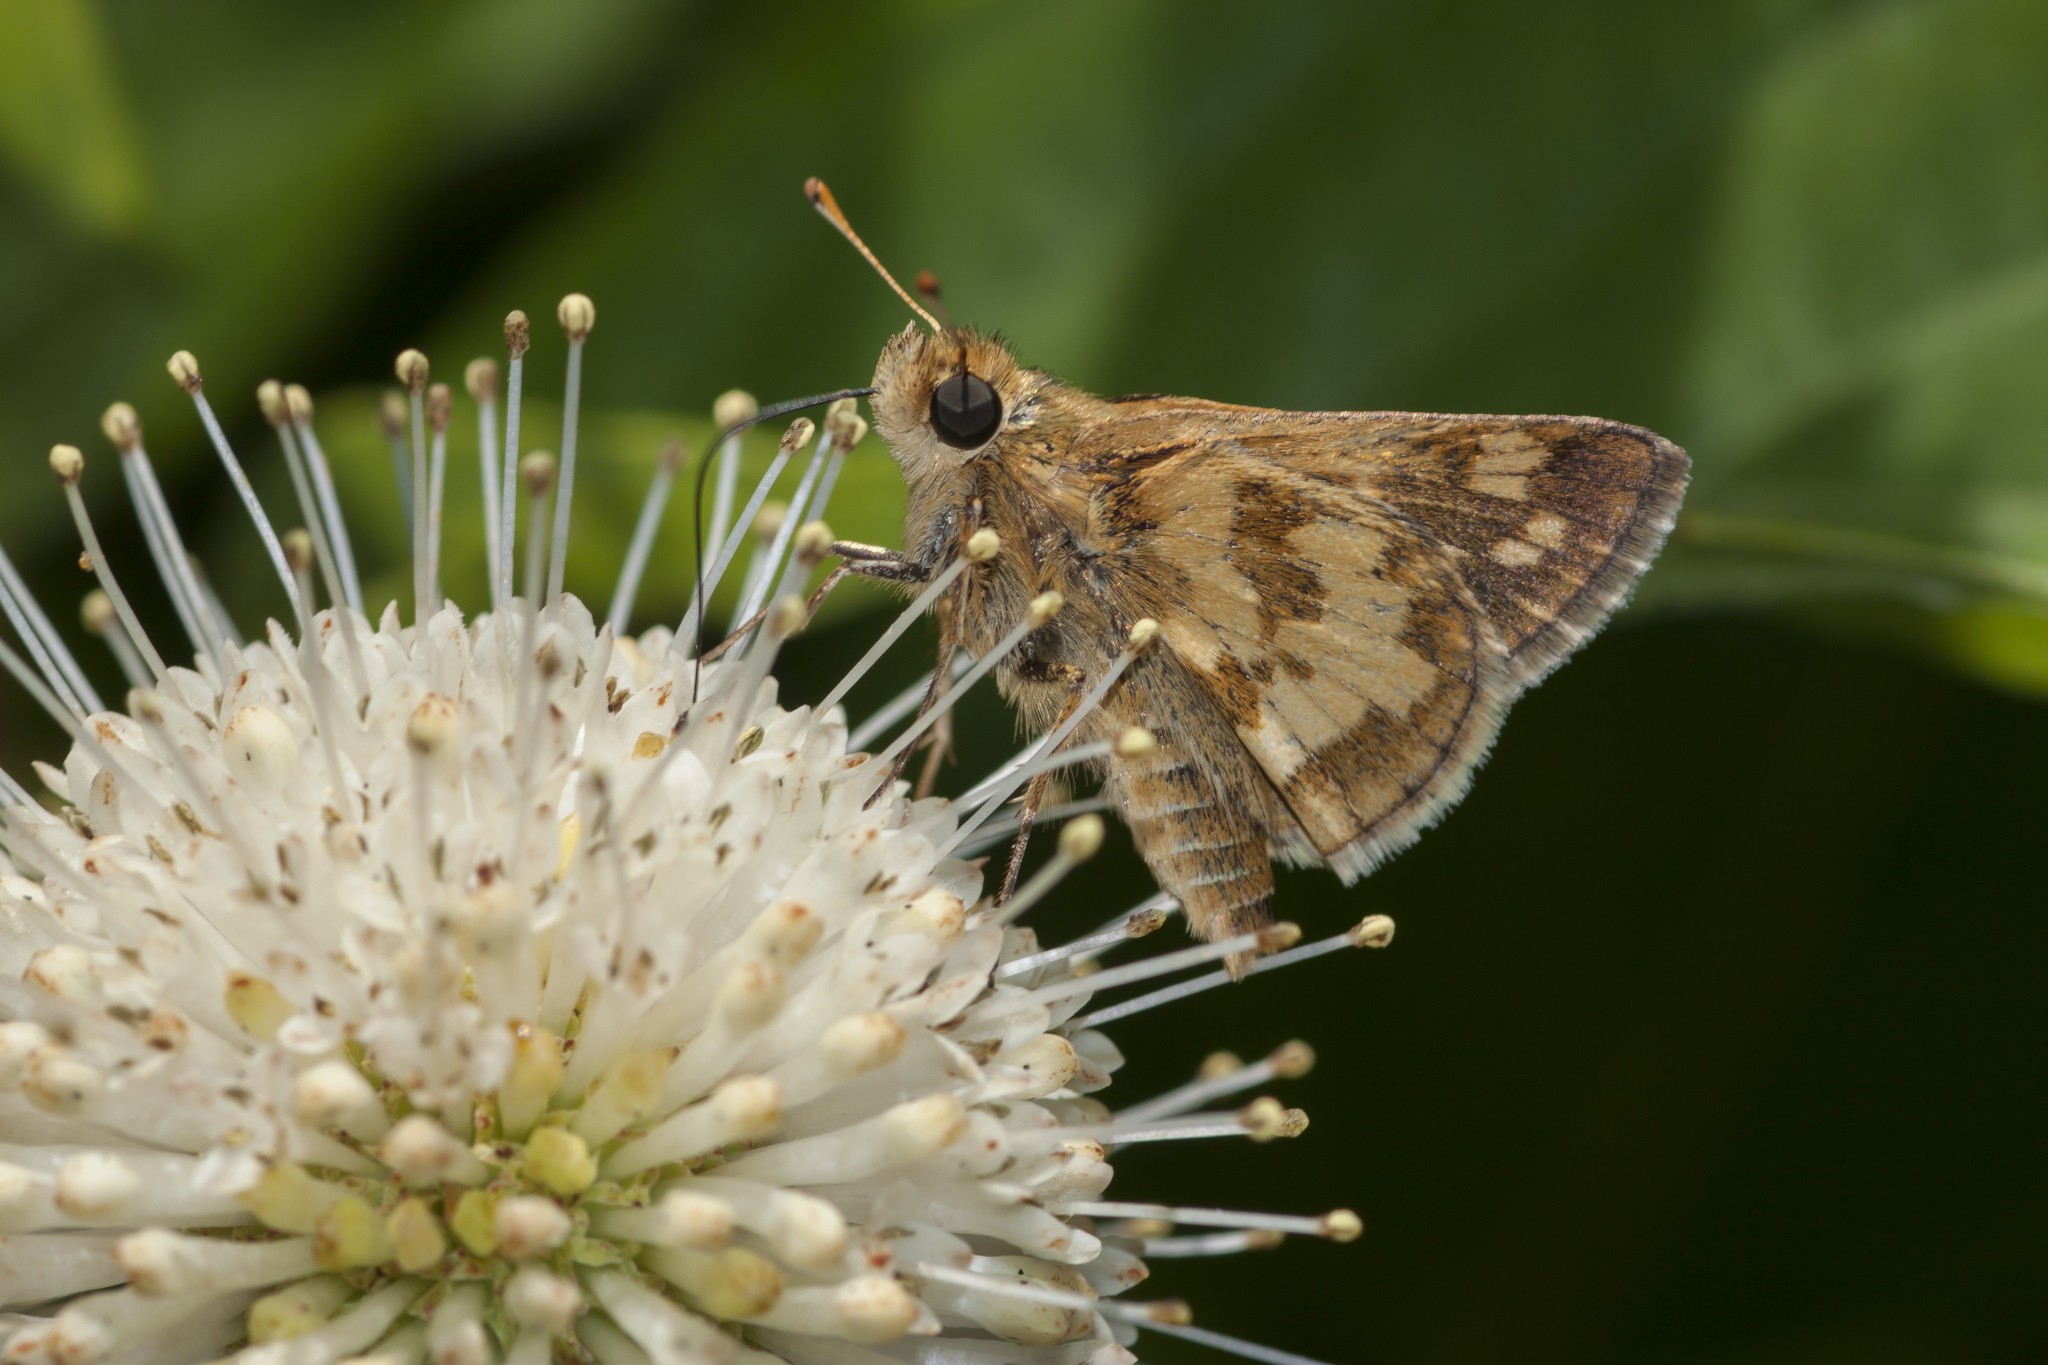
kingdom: Animalia
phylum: Arthropoda
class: Insecta
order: Lepidoptera
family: Hesperiidae
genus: Polites
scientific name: Polites coras
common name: Peck's skipper
